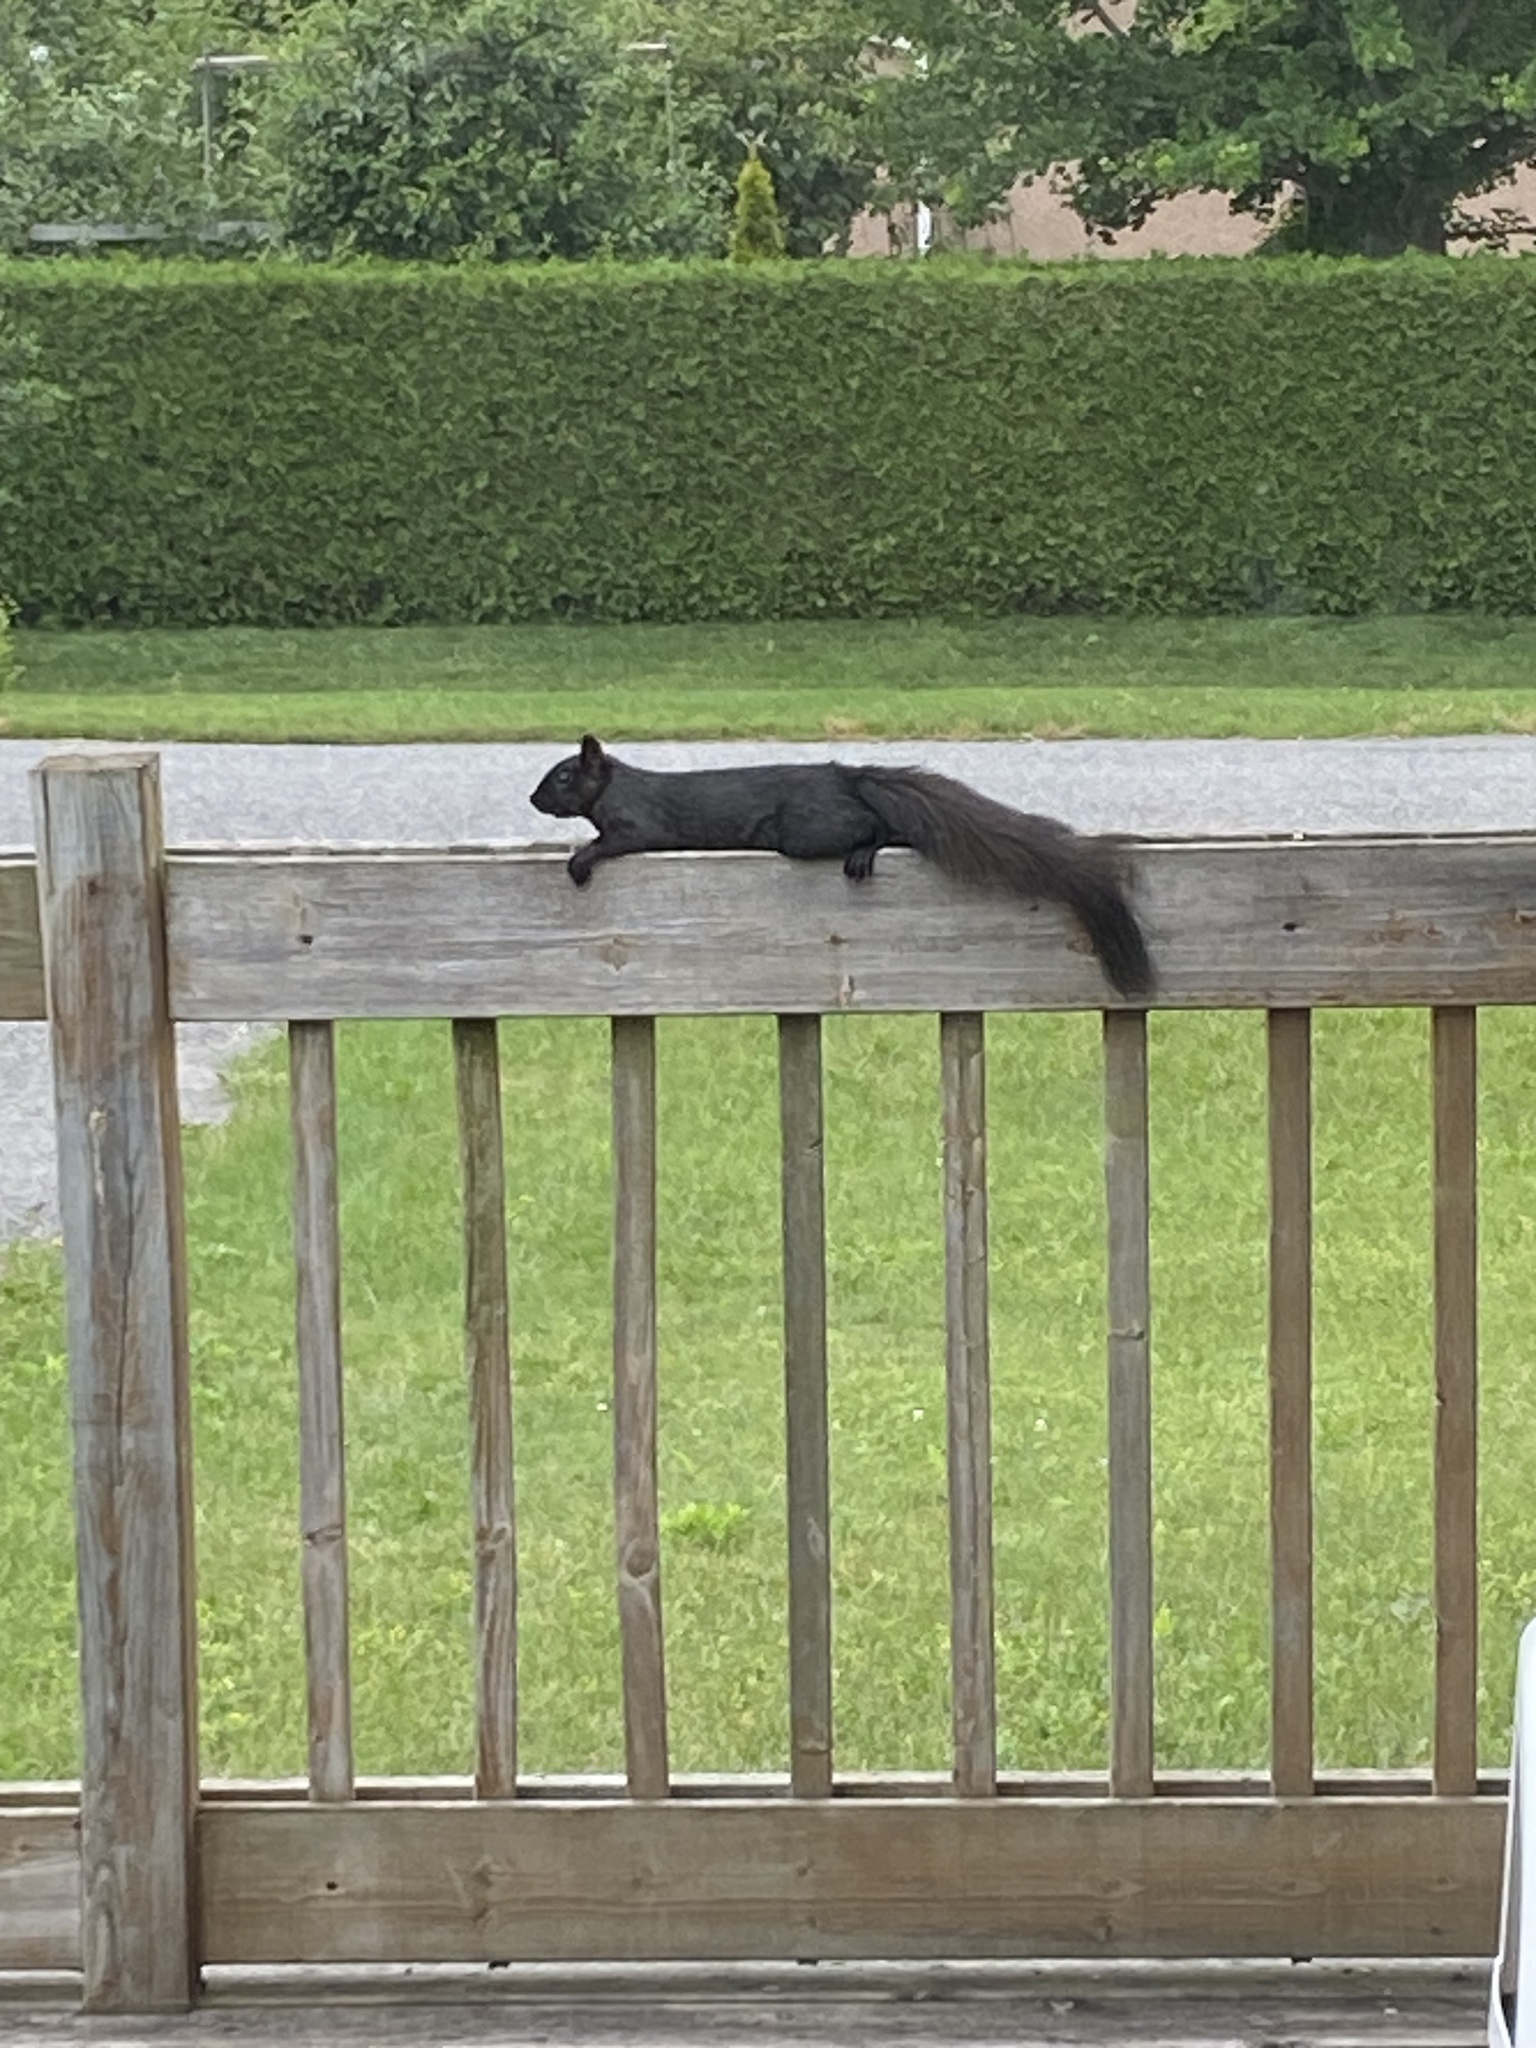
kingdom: Animalia
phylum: Chordata
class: Mammalia
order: Rodentia
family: Sciuridae
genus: Sciurus
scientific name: Sciurus carolinensis
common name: Eastern gray squirrel
